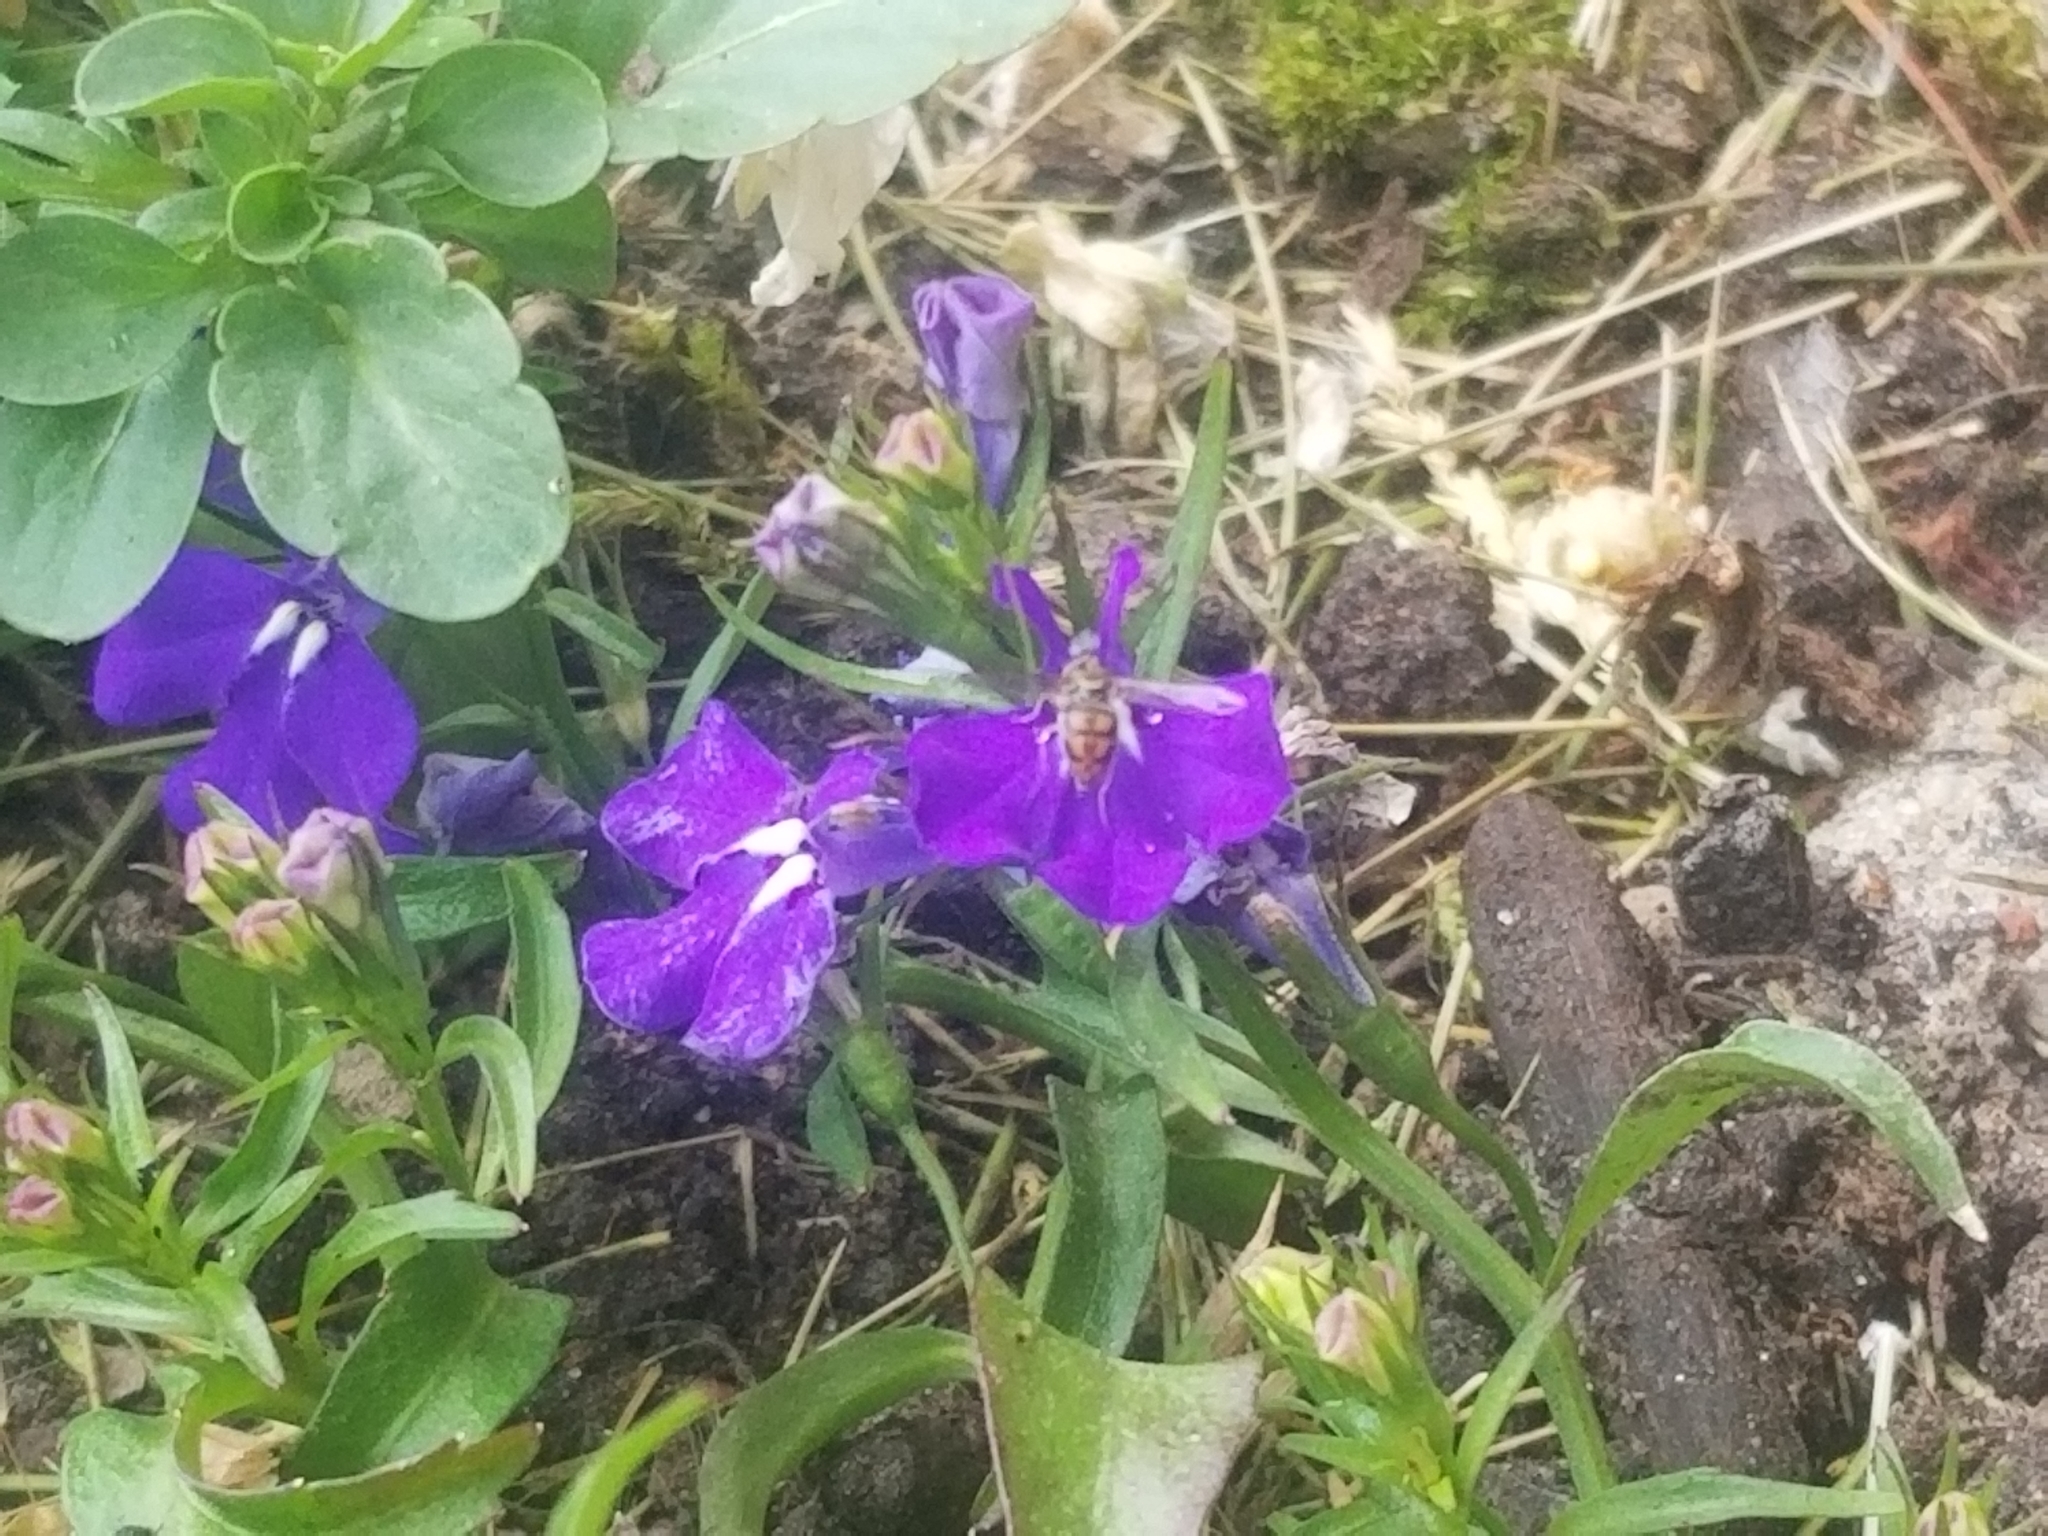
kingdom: Animalia
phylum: Arthropoda
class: Insecta
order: Diptera
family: Syrphidae
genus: Toxomerus
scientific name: Toxomerus marginatus
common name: Syrphid fly
